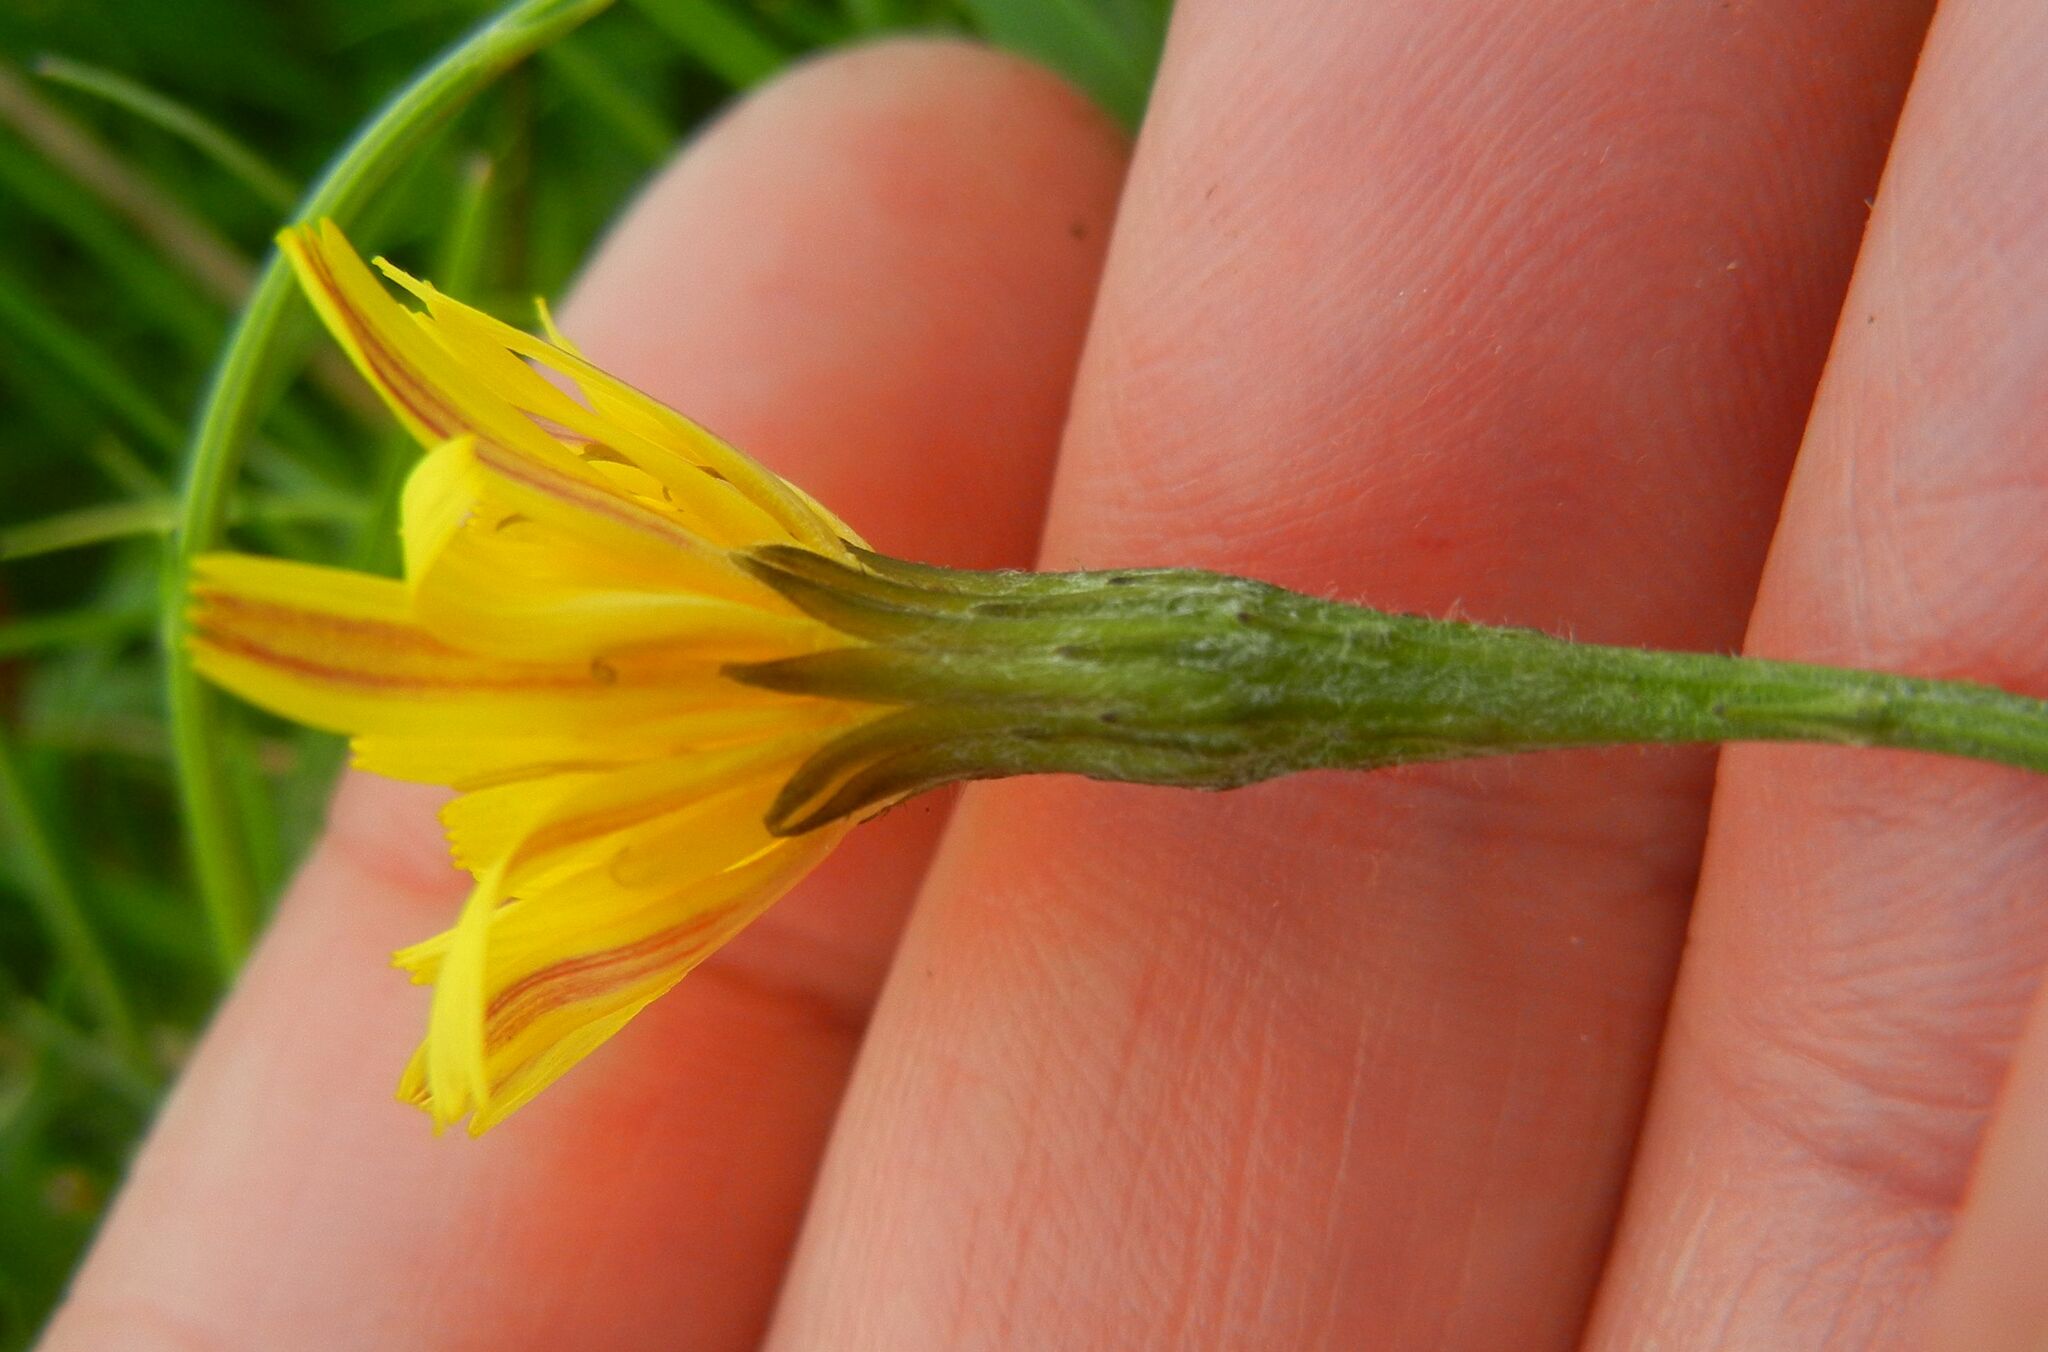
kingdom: Plantae
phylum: Tracheophyta
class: Magnoliopsida
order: Asterales
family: Asteraceae
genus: Scorzoneroides
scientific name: Scorzoneroides autumnalis
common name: Autumn hawkbit
